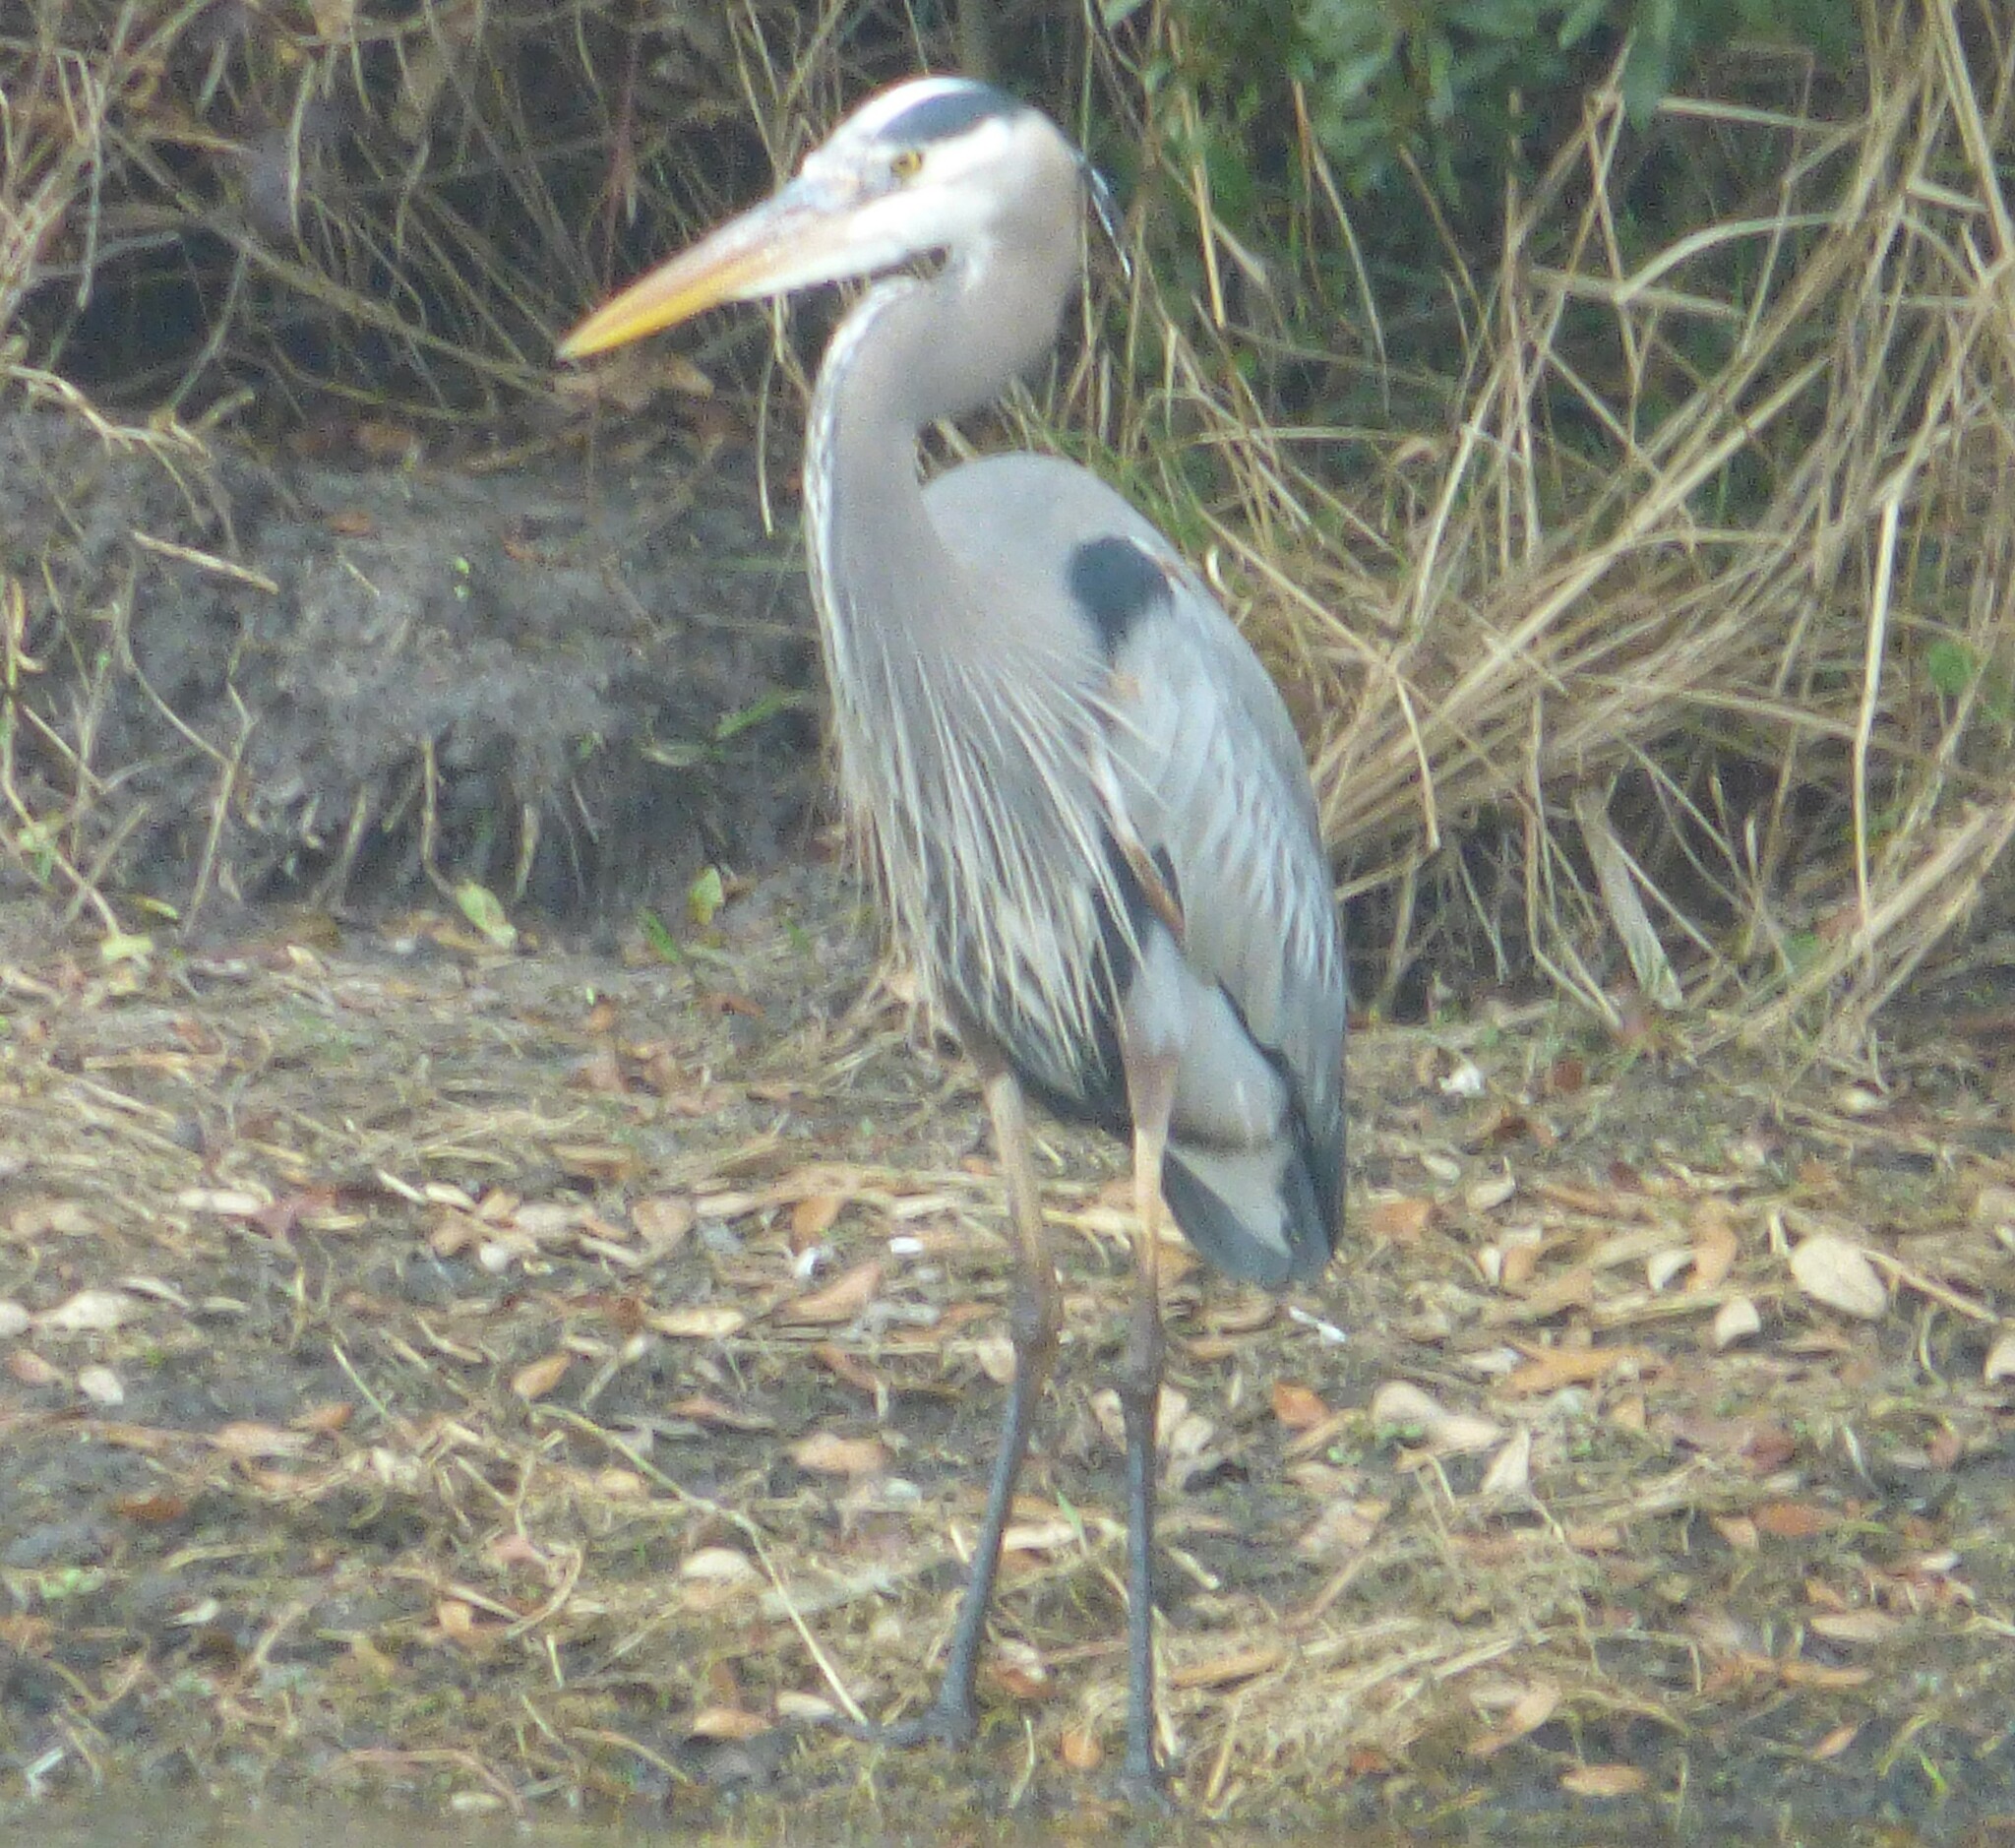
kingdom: Animalia
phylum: Chordata
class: Aves
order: Pelecaniformes
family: Ardeidae
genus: Ardea
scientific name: Ardea herodias
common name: Great blue heron
